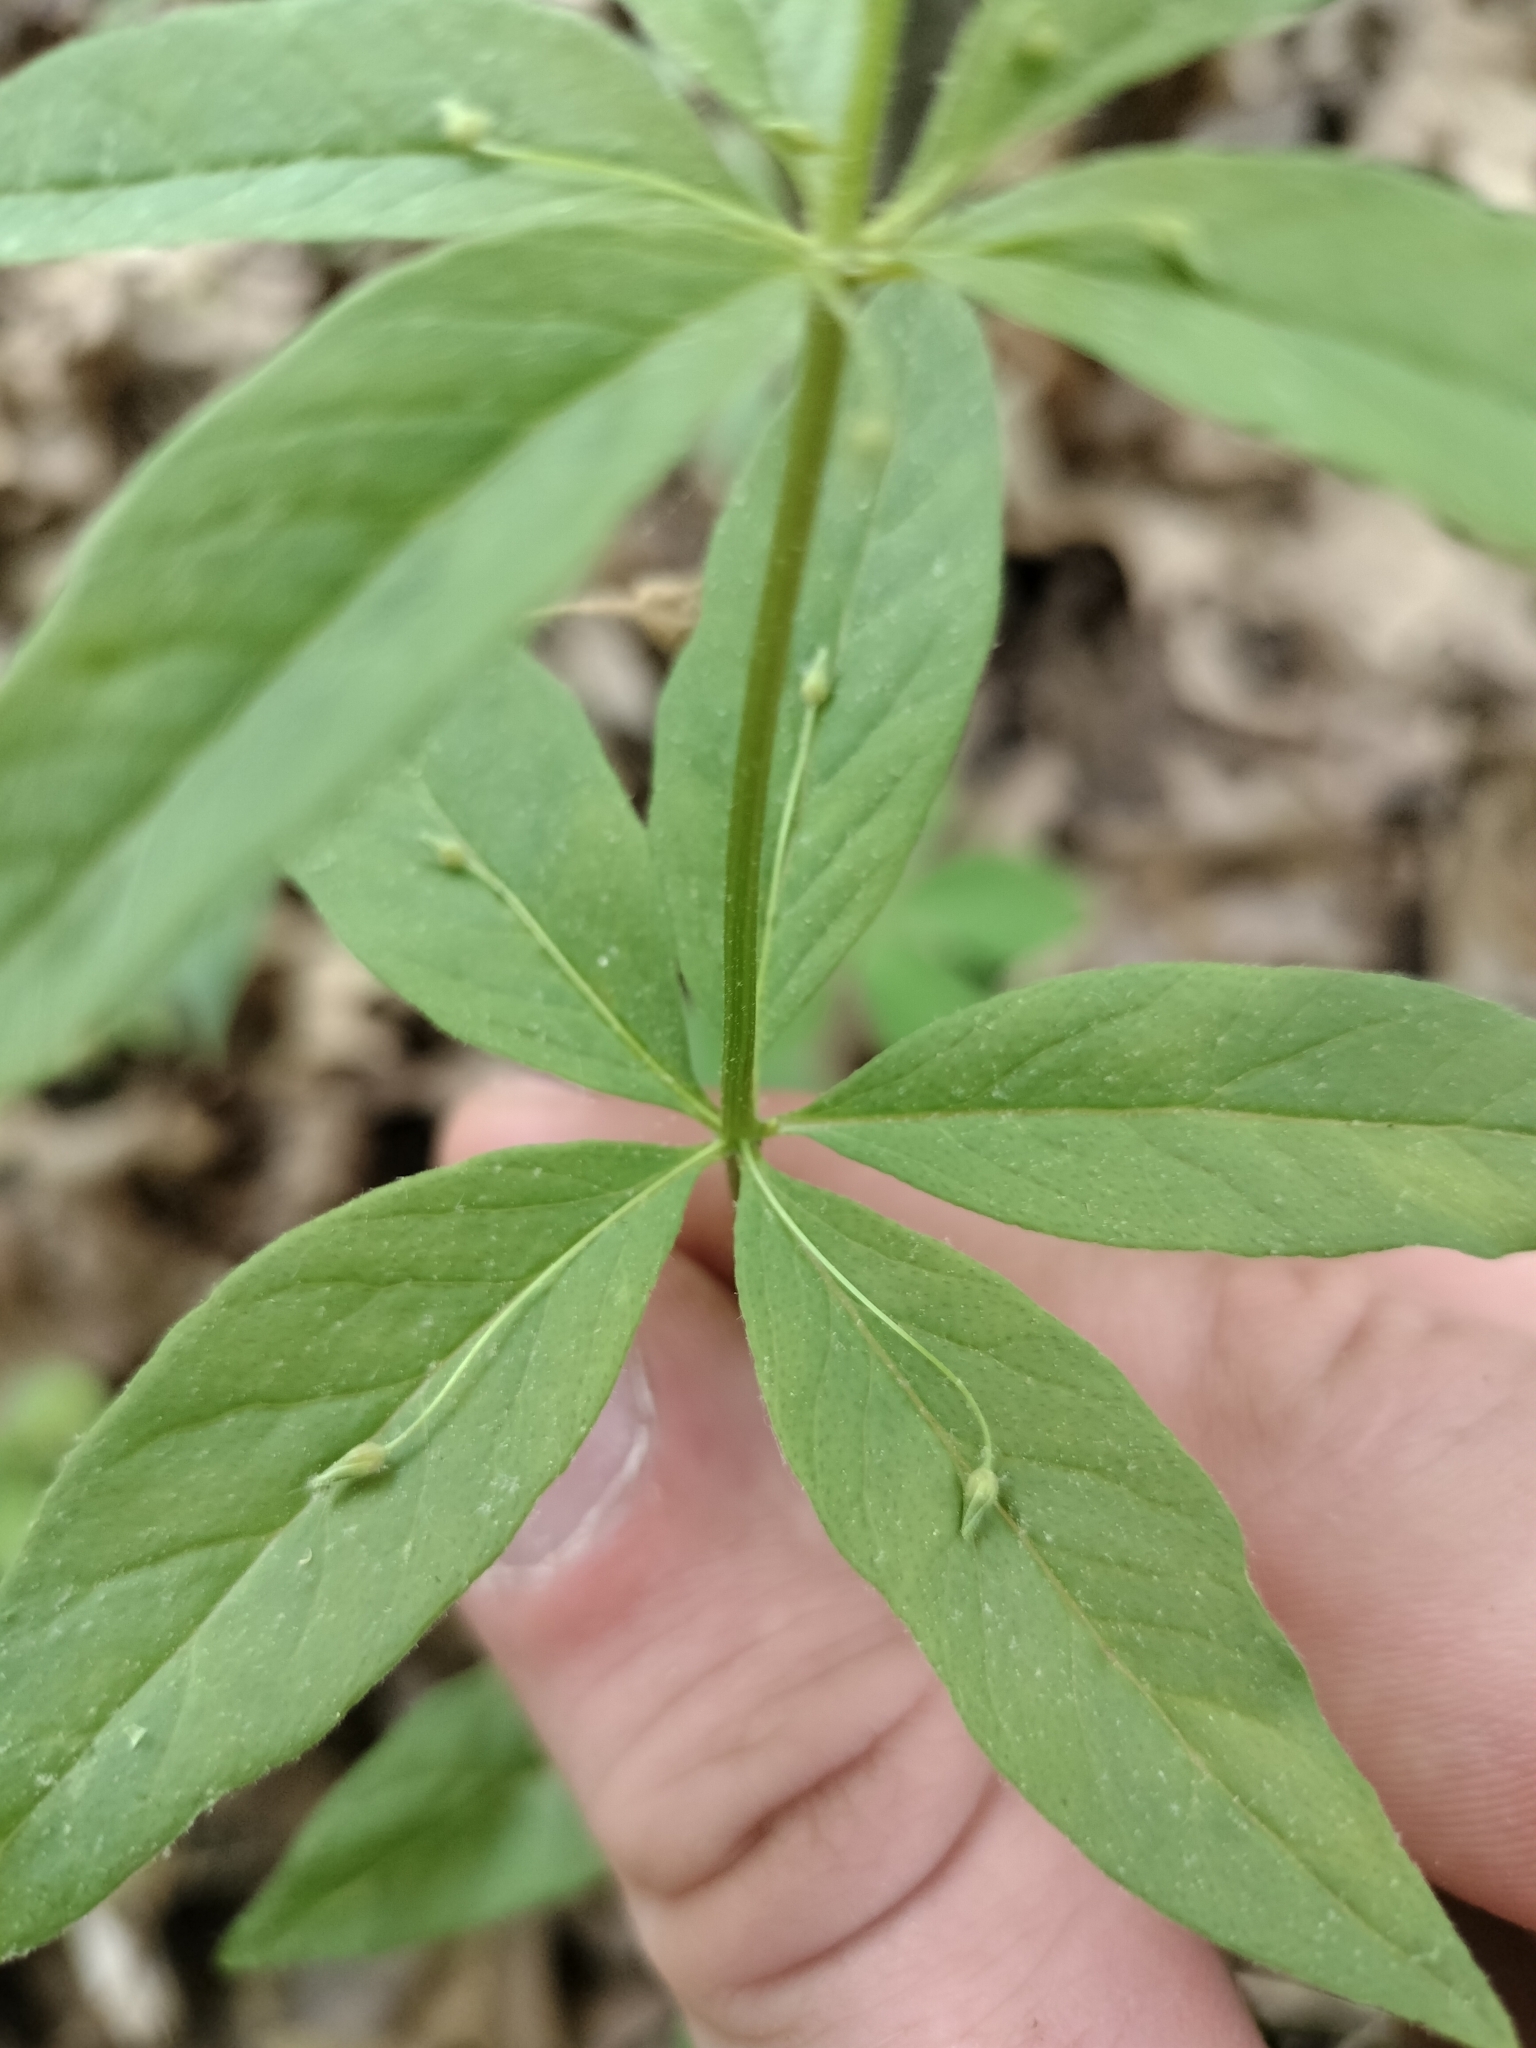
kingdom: Plantae
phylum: Tracheophyta
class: Magnoliopsida
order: Ericales
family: Primulaceae
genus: Lysimachia
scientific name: Lysimachia quadrifolia
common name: Whorled loosestrife
